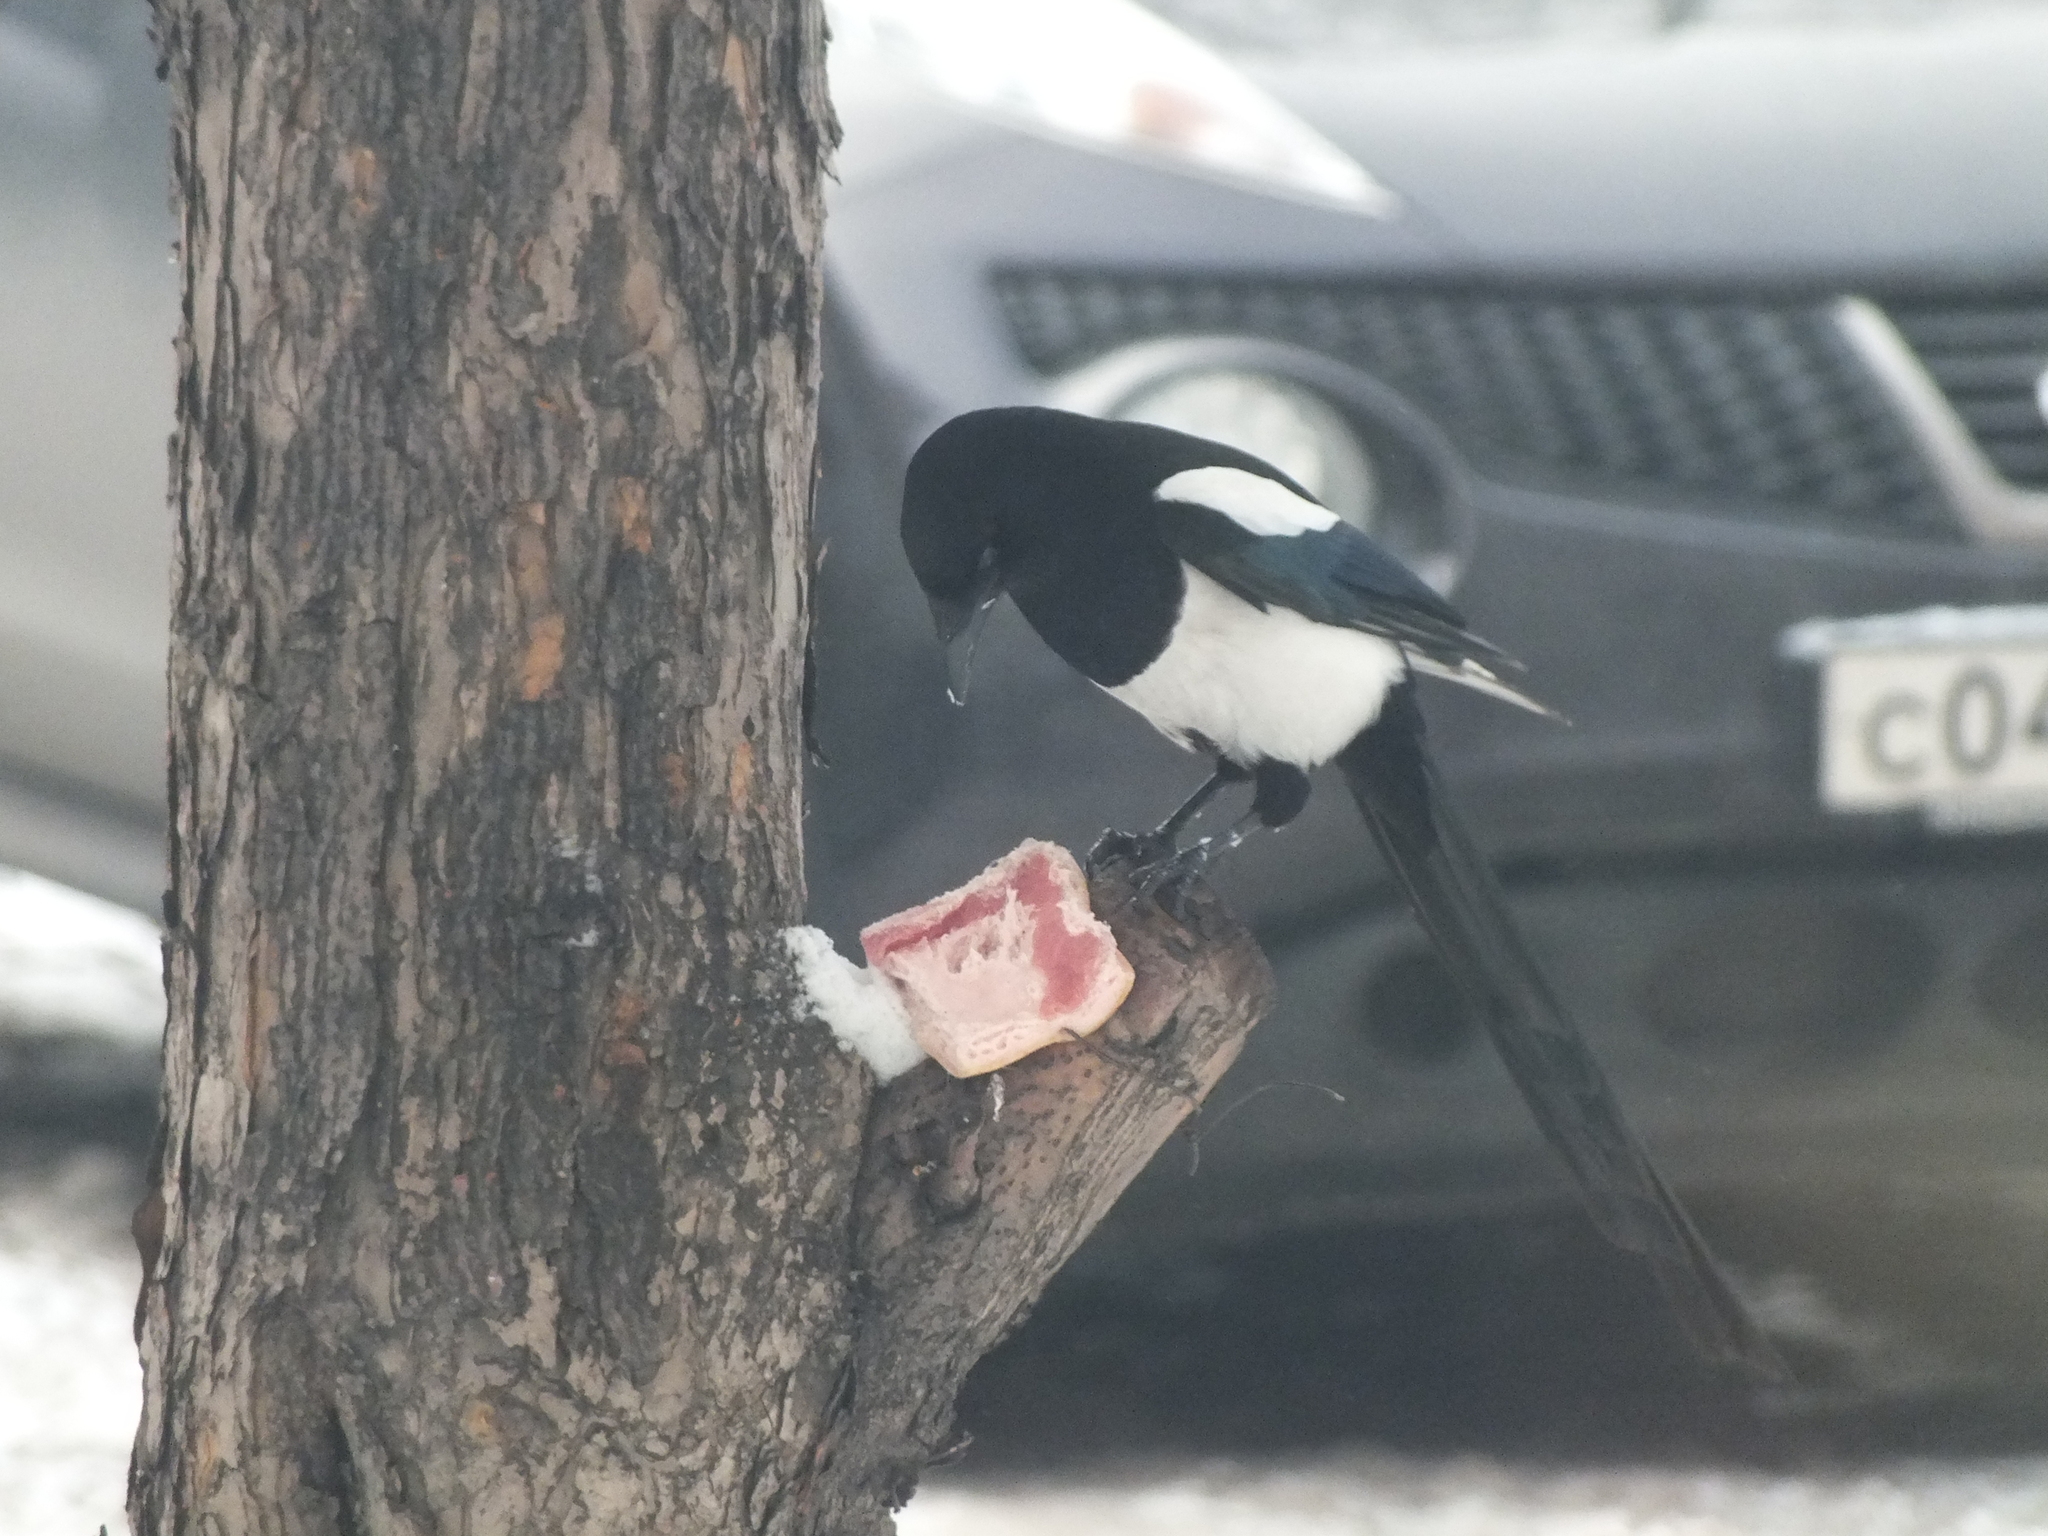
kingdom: Animalia
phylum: Chordata
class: Aves
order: Passeriformes
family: Corvidae
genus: Pica
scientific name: Pica pica
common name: Eurasian magpie
